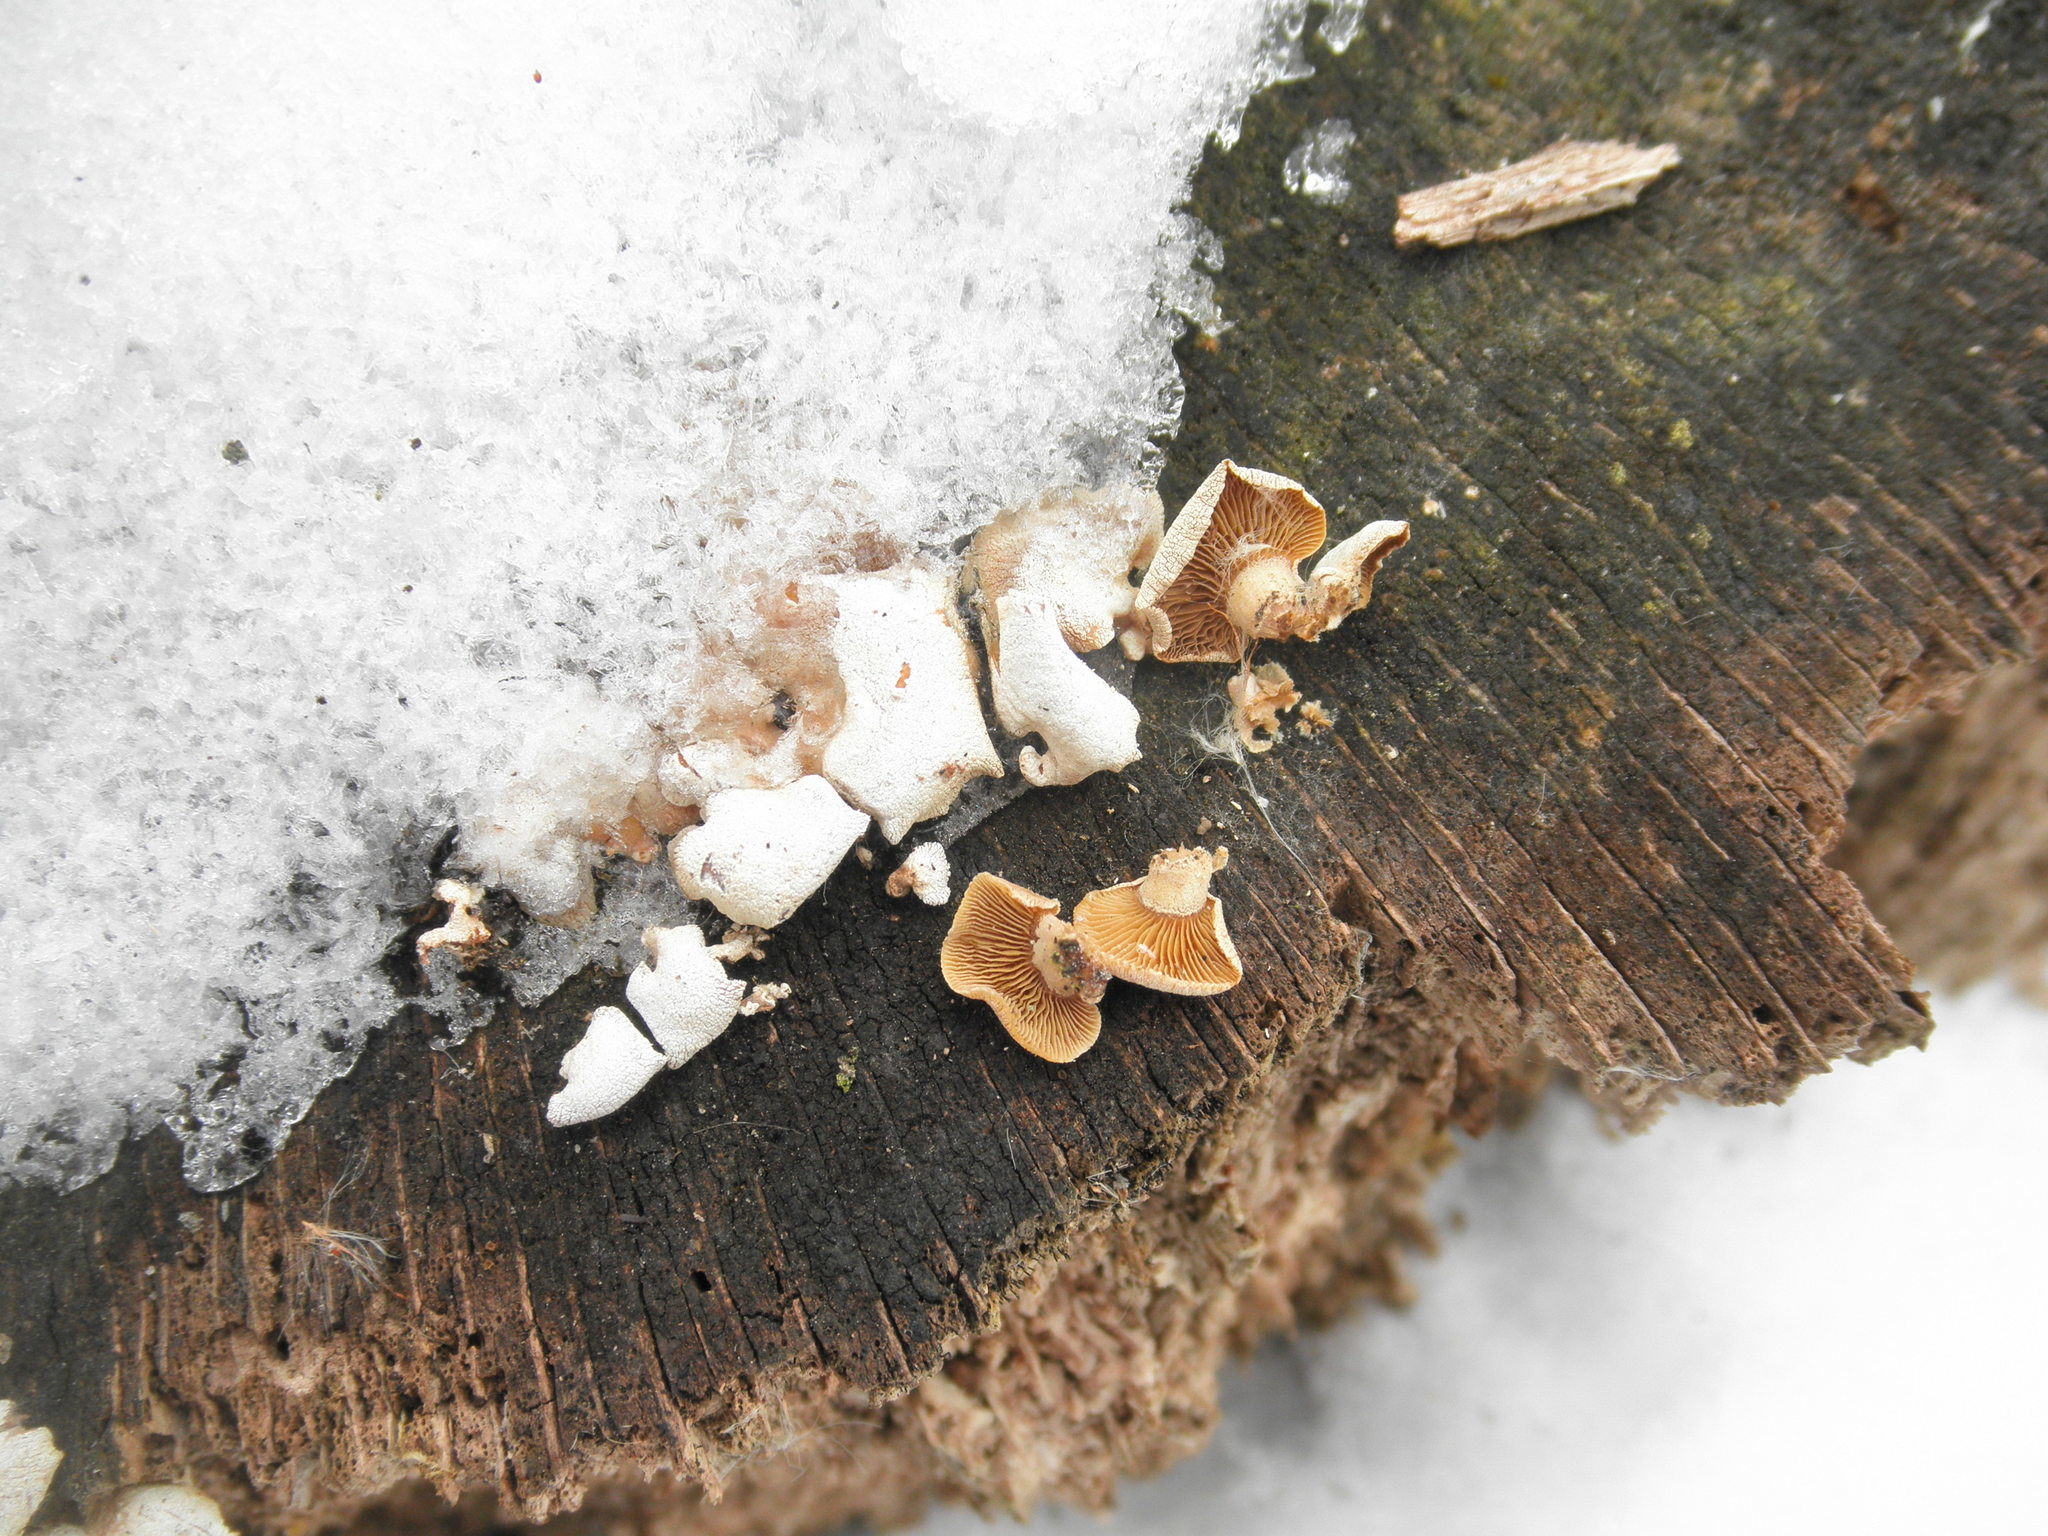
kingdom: Fungi
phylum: Basidiomycota
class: Agaricomycetes
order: Agaricales
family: Mycenaceae
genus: Panellus
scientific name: Panellus stipticus
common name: Bitter oysterling
